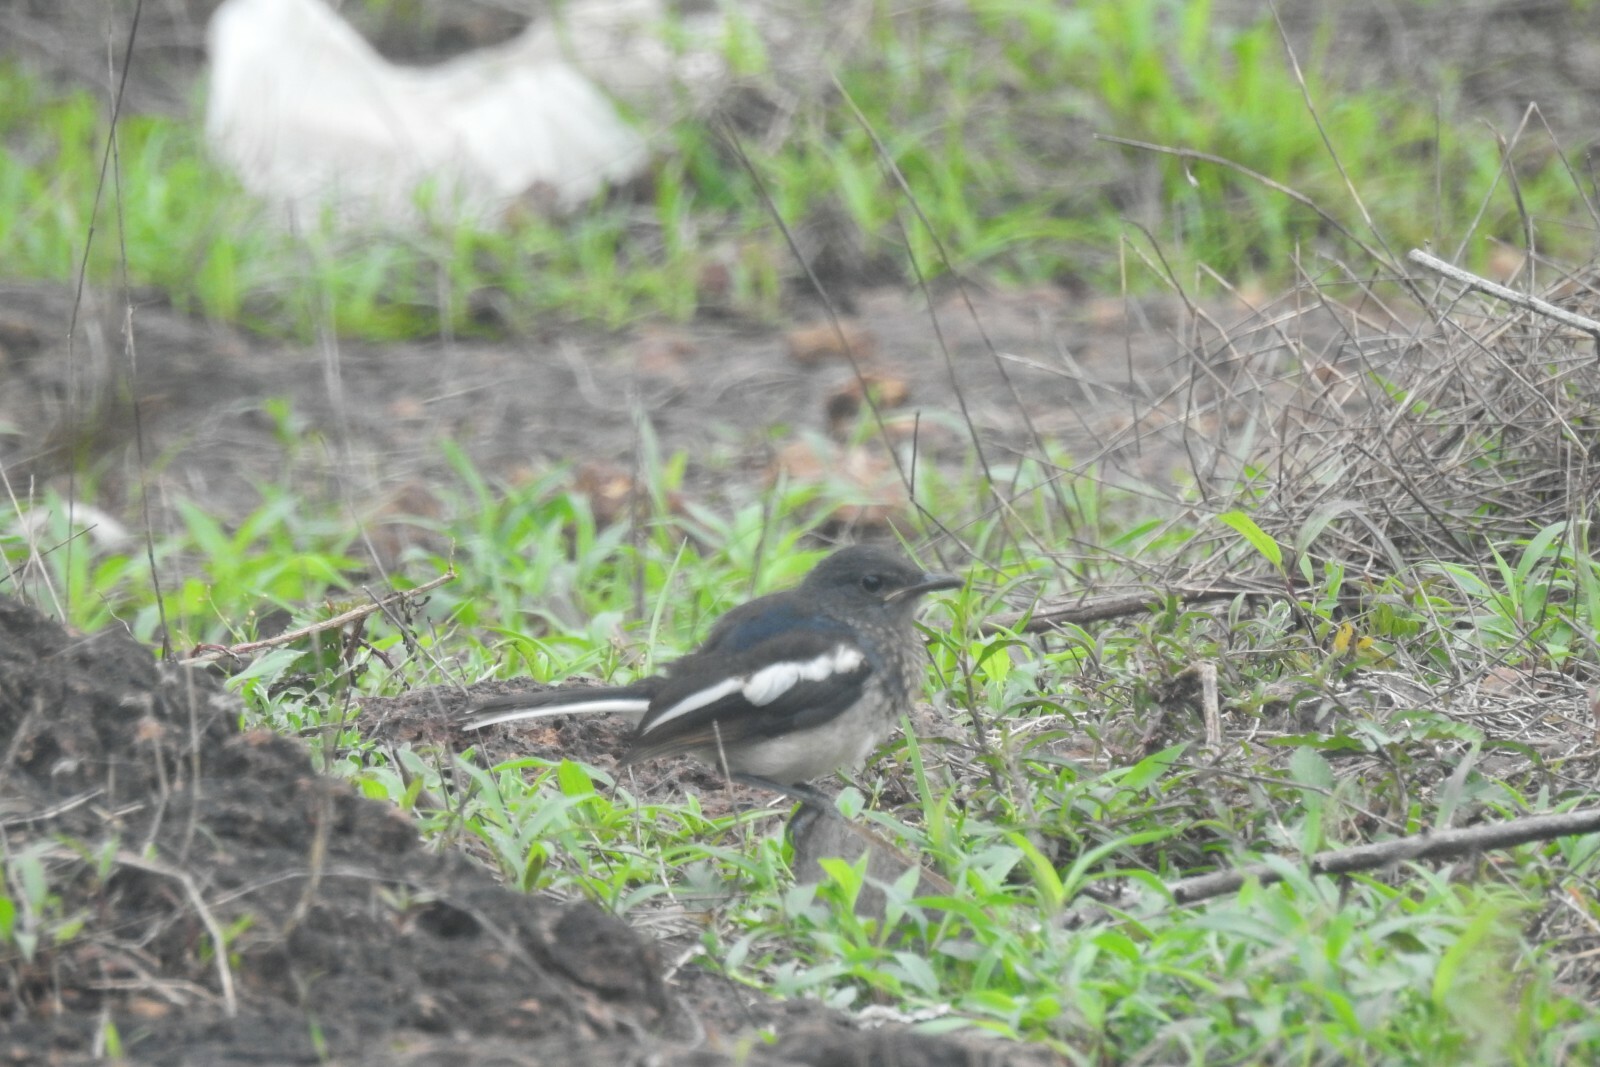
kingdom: Animalia
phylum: Chordata
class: Aves
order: Passeriformes
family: Muscicapidae
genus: Copsychus
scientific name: Copsychus saularis
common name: Oriental magpie-robin
